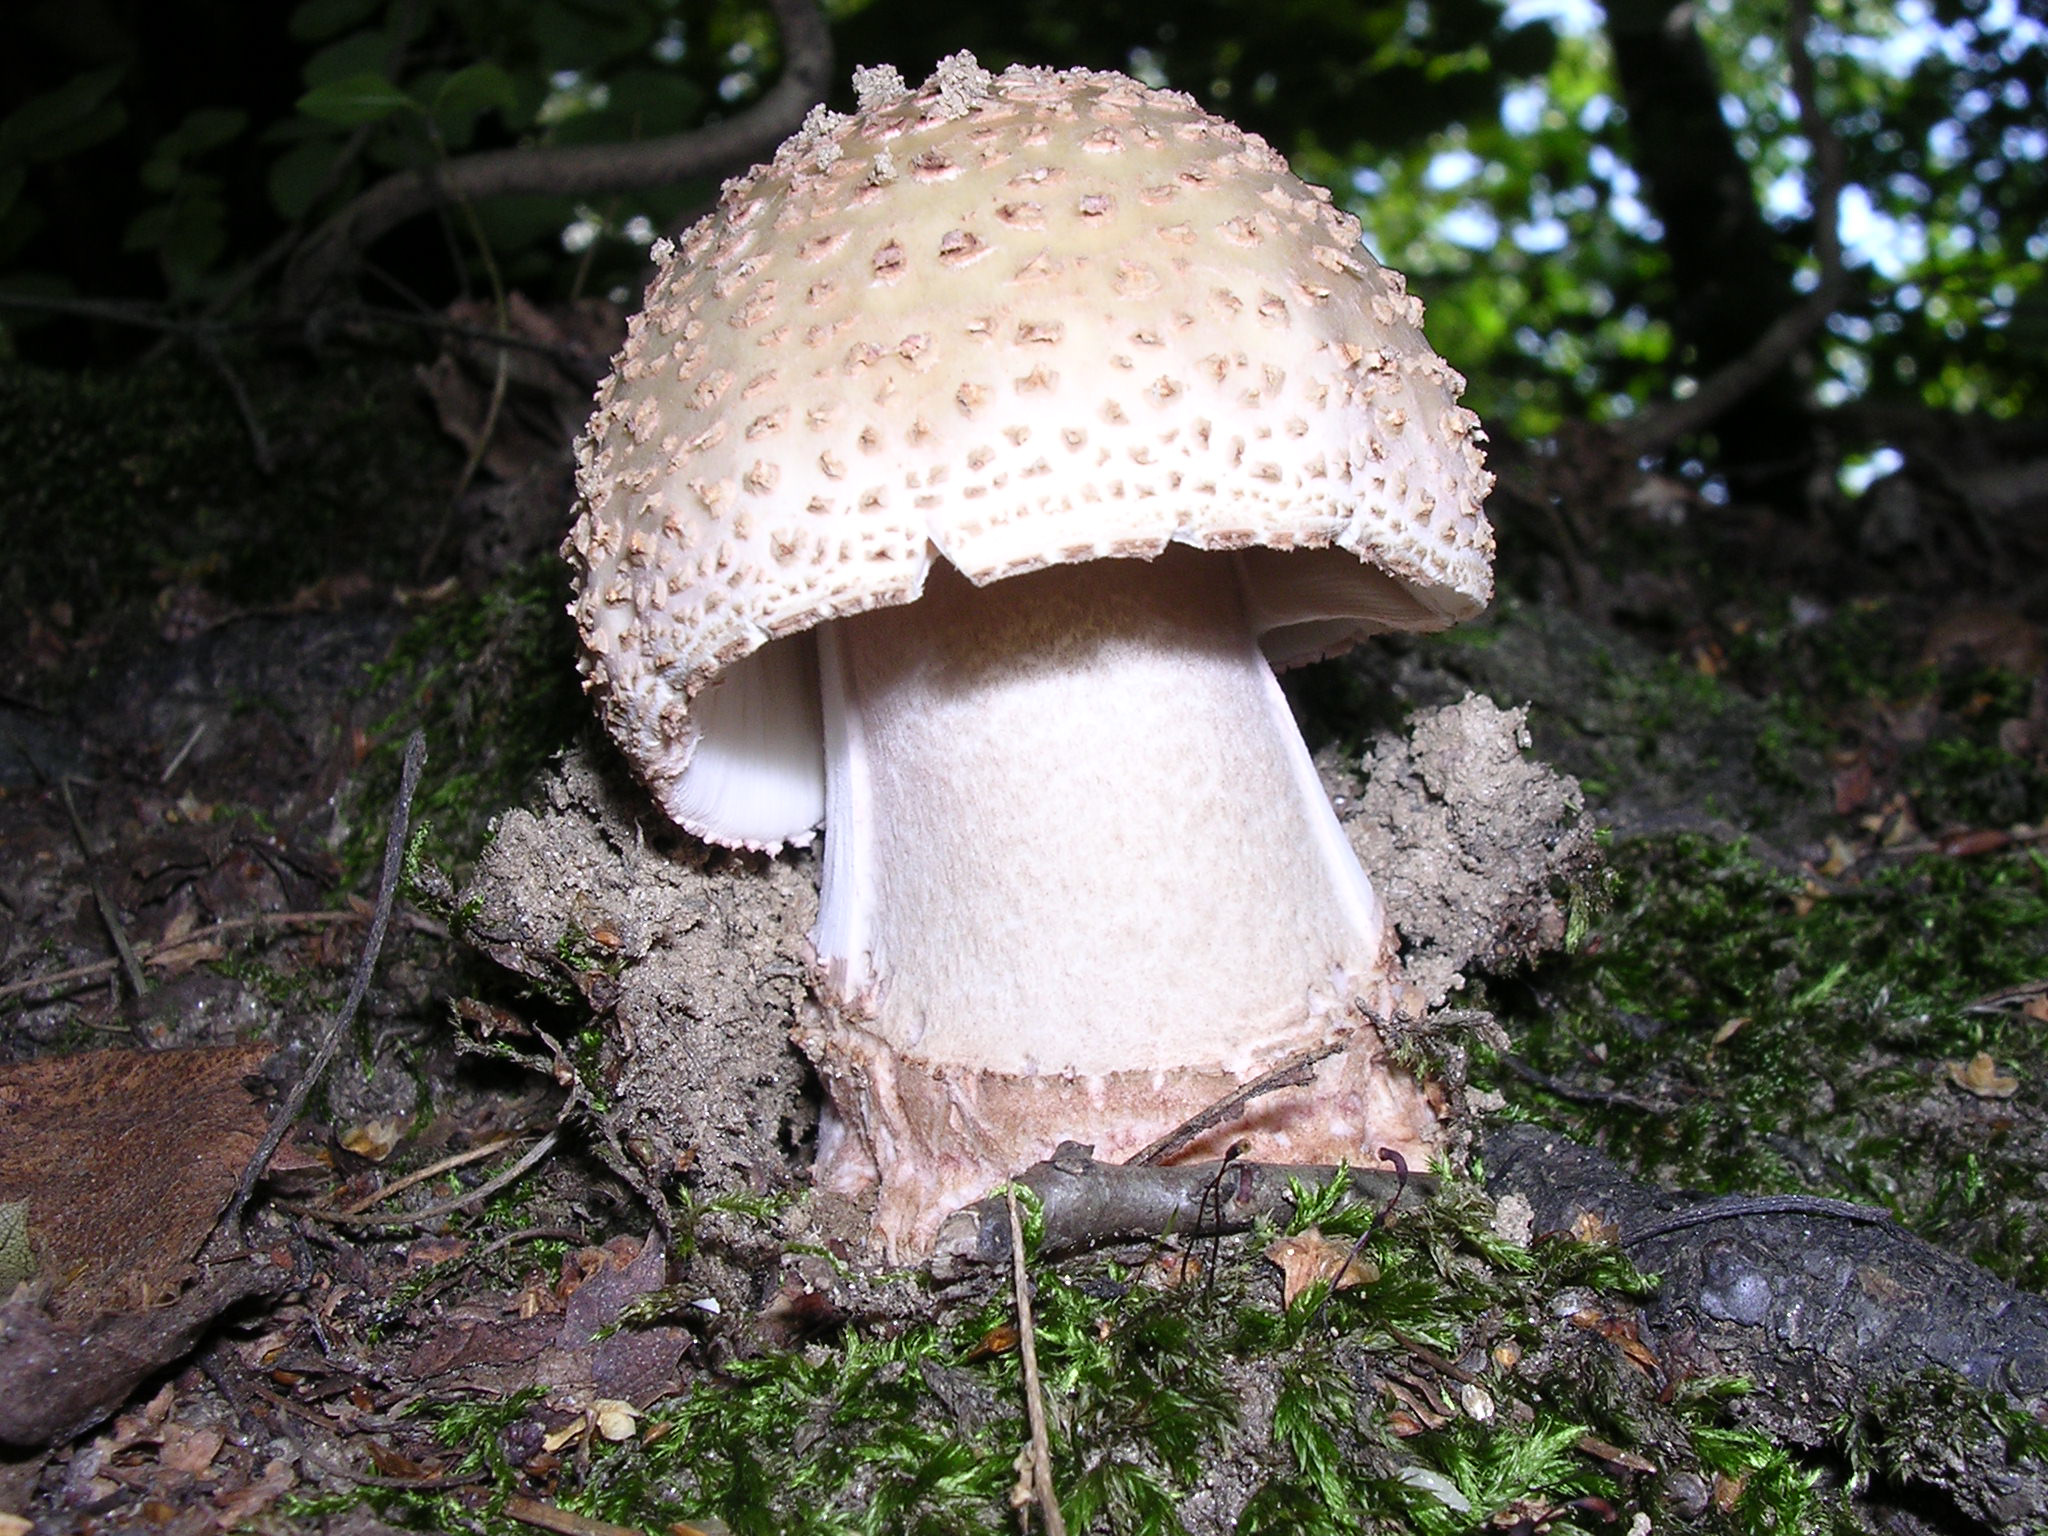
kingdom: Fungi
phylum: Basidiomycota
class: Agaricomycetes
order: Agaricales
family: Amanitaceae
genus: Amanita
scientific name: Amanita rubescens
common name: Blusher
